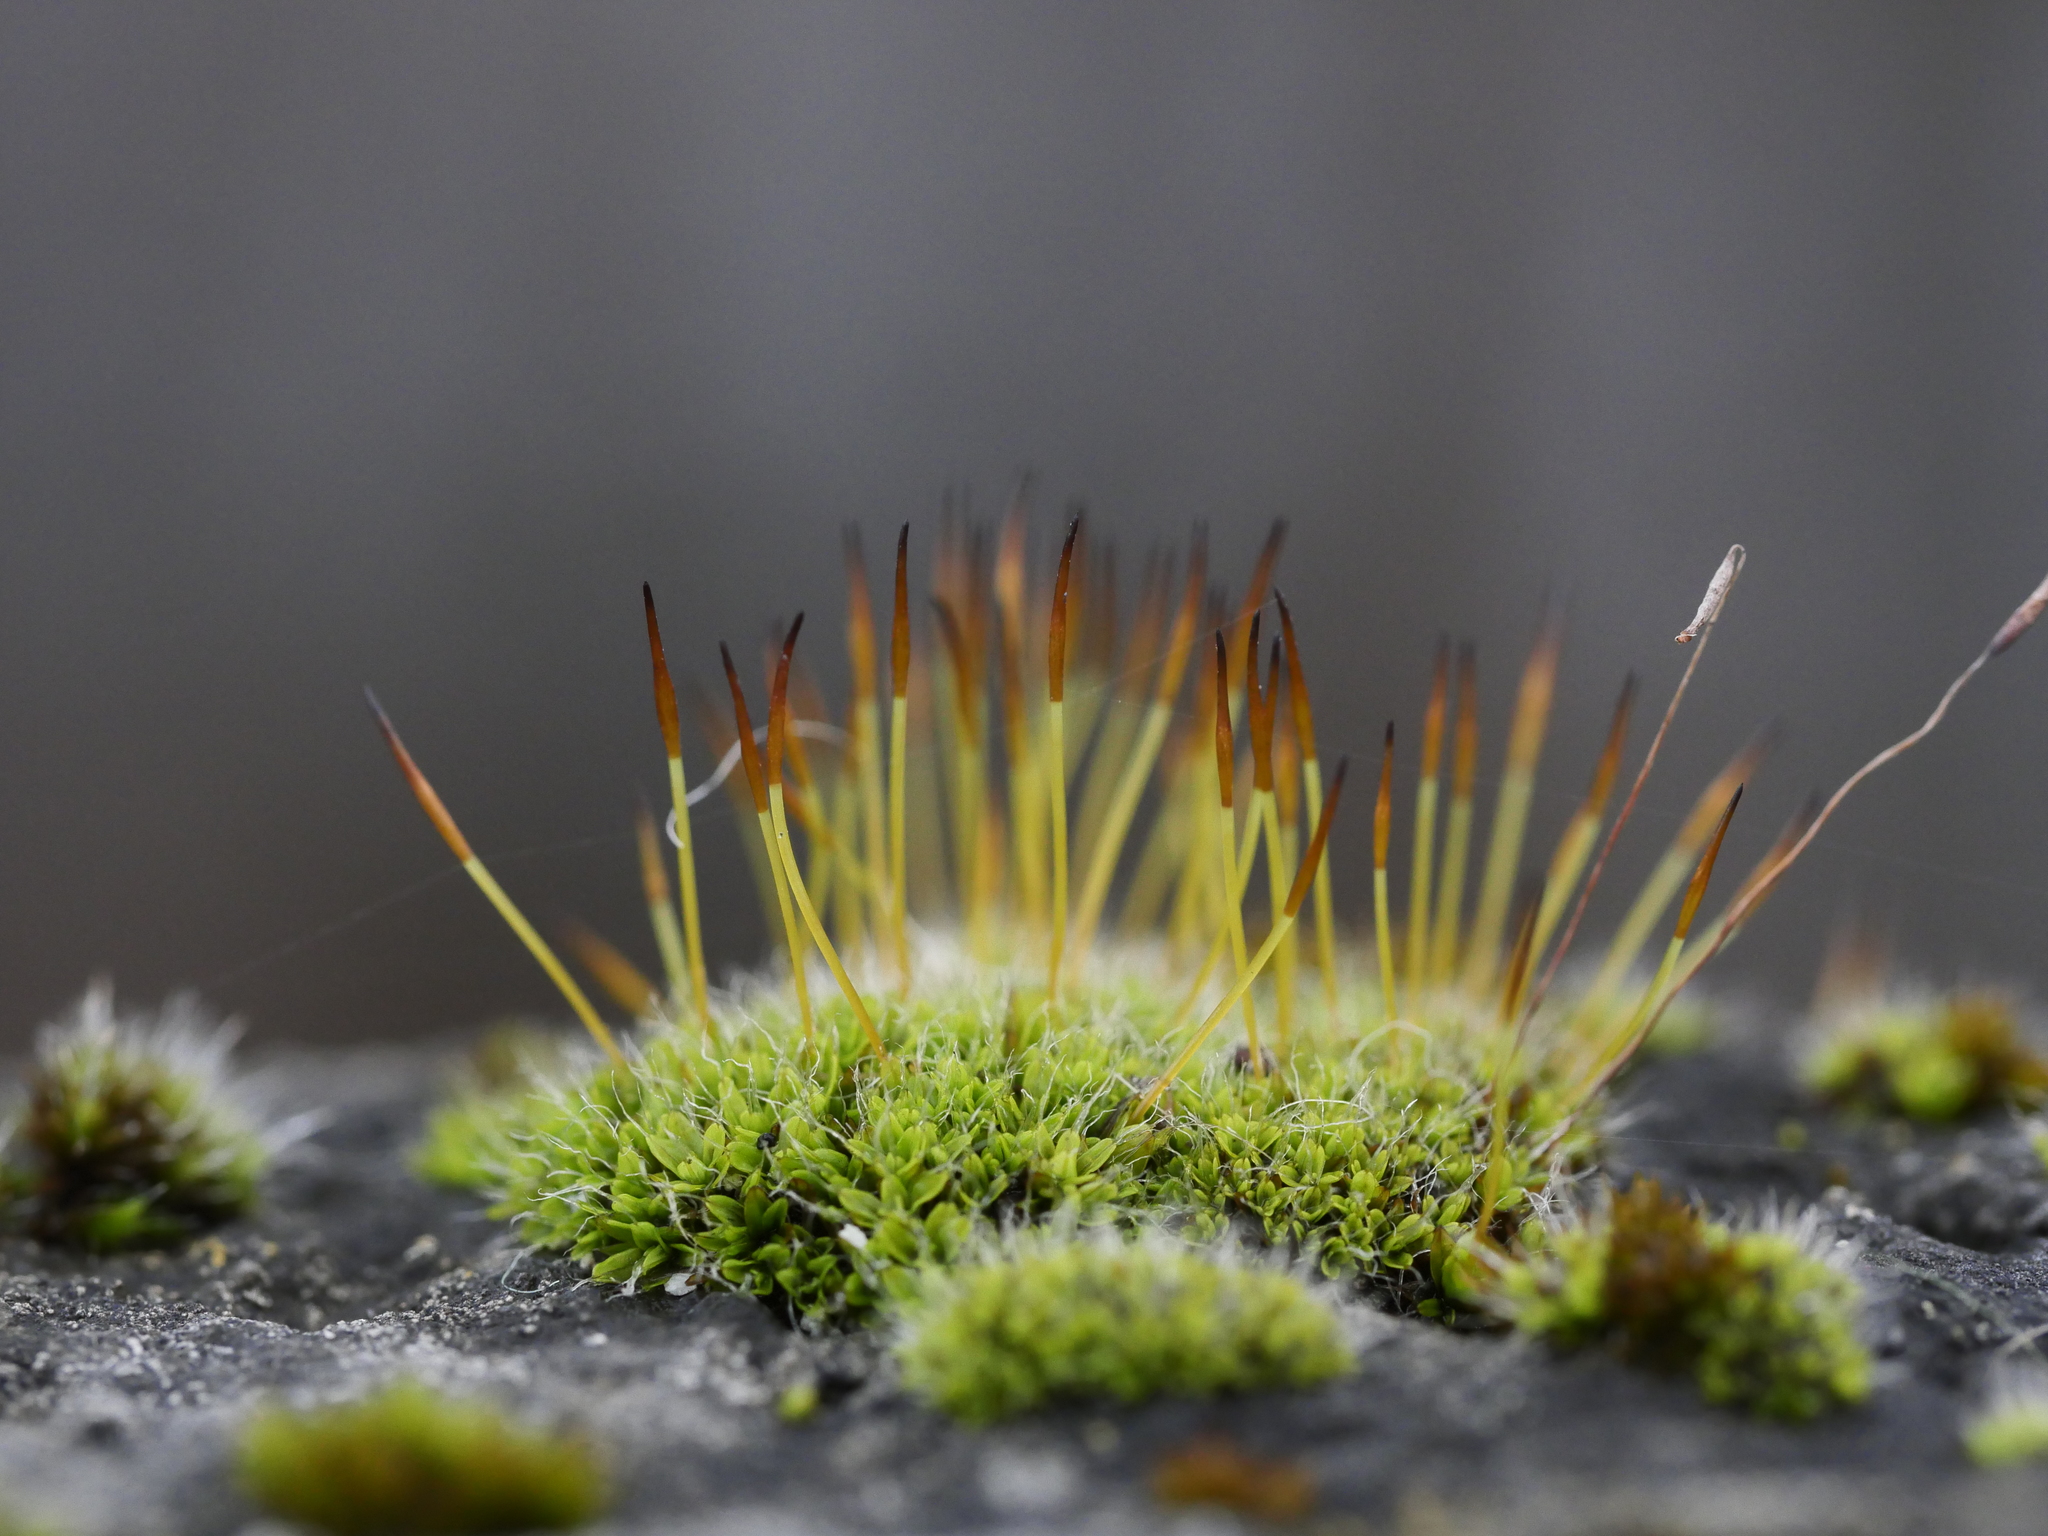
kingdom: Plantae
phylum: Bryophyta
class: Bryopsida
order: Pottiales
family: Pottiaceae
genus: Tortula
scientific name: Tortula muralis
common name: Wall screw-moss
